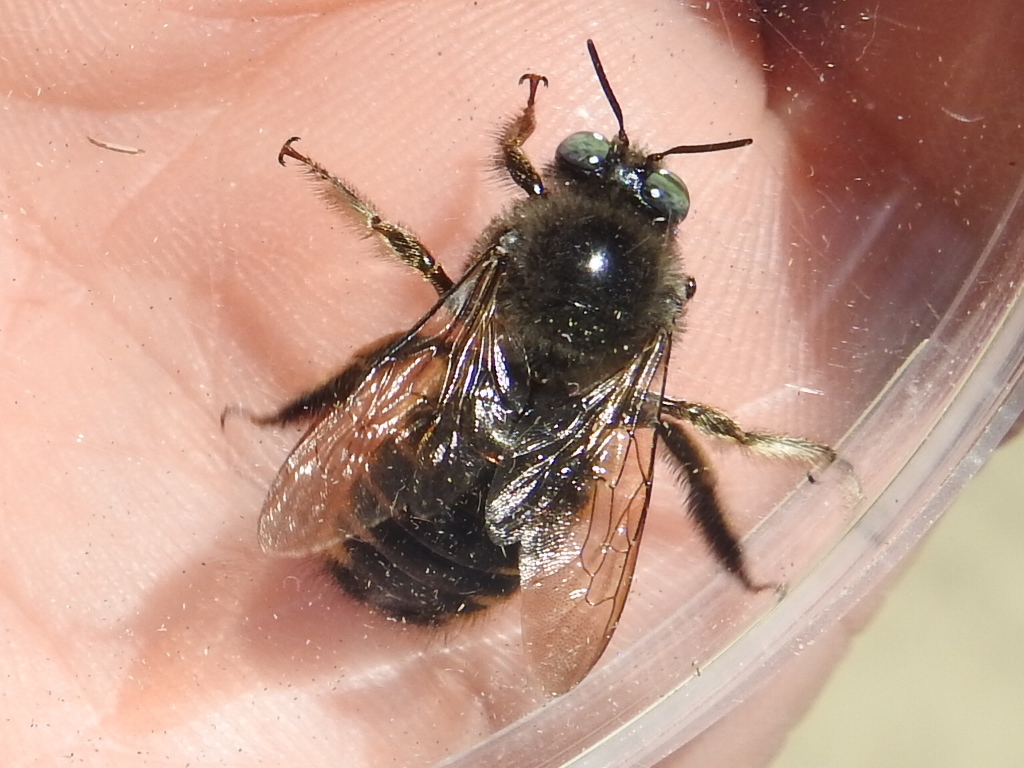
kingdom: Animalia
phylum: Arthropoda
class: Insecta
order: Hymenoptera
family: Apidae
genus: Xylocopa
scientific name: Xylocopa tabaniformis
